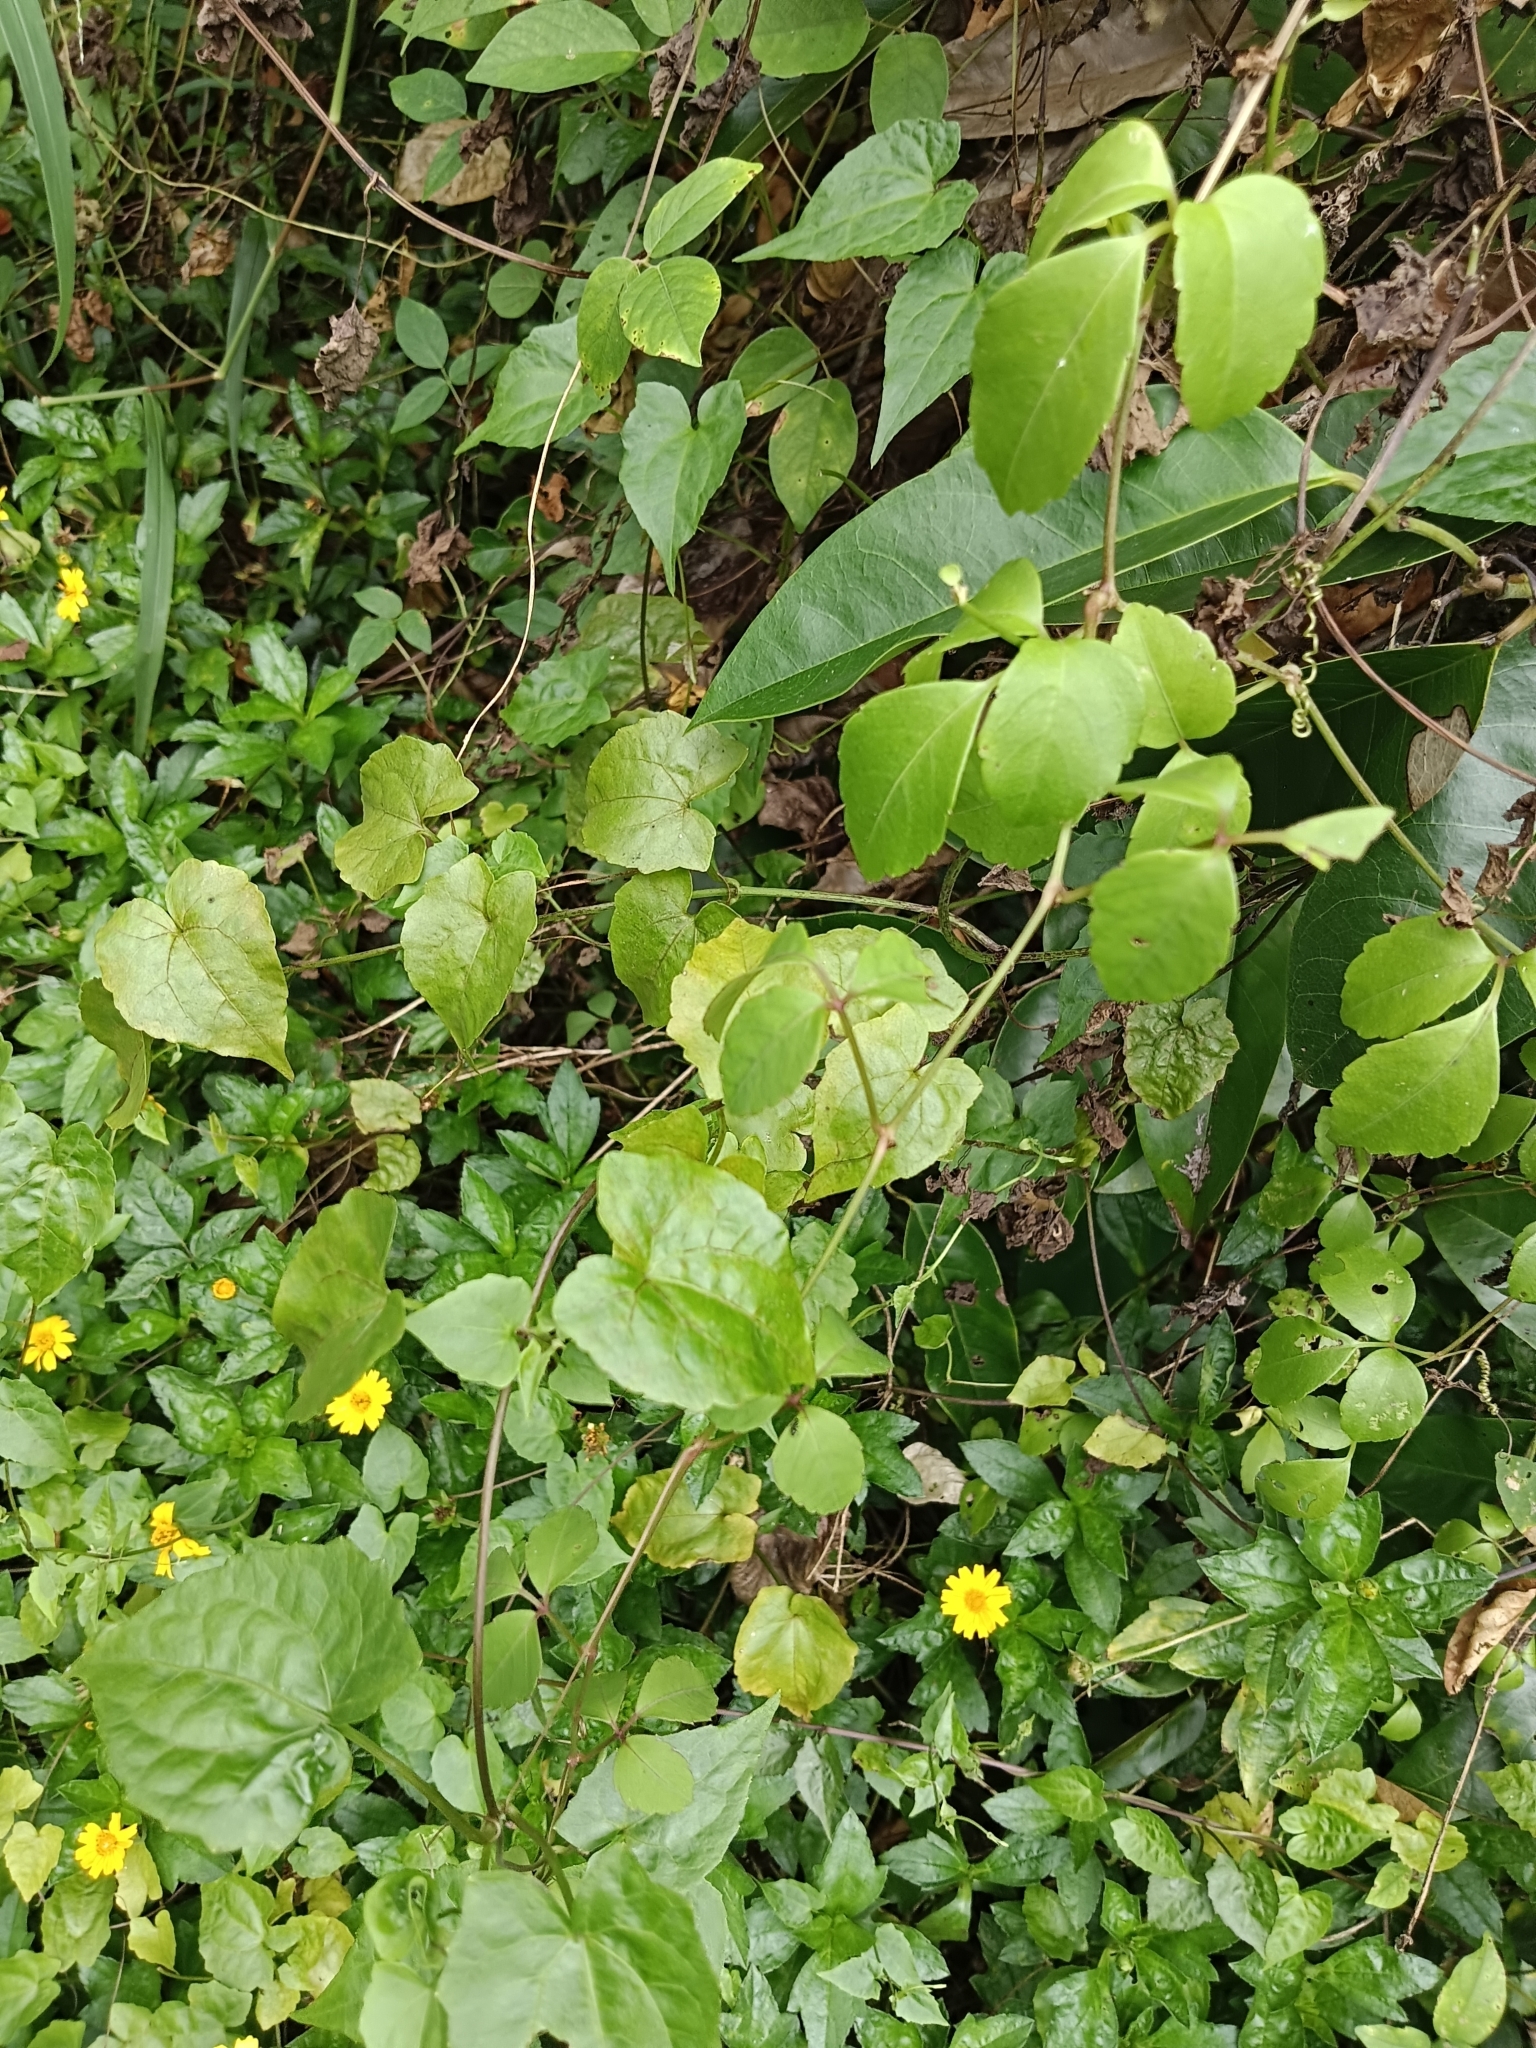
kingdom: Plantae
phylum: Tracheophyta
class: Magnoliopsida
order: Asterales
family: Asteraceae
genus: Mikania
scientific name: Mikania micrantha
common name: Mile-a-minute
